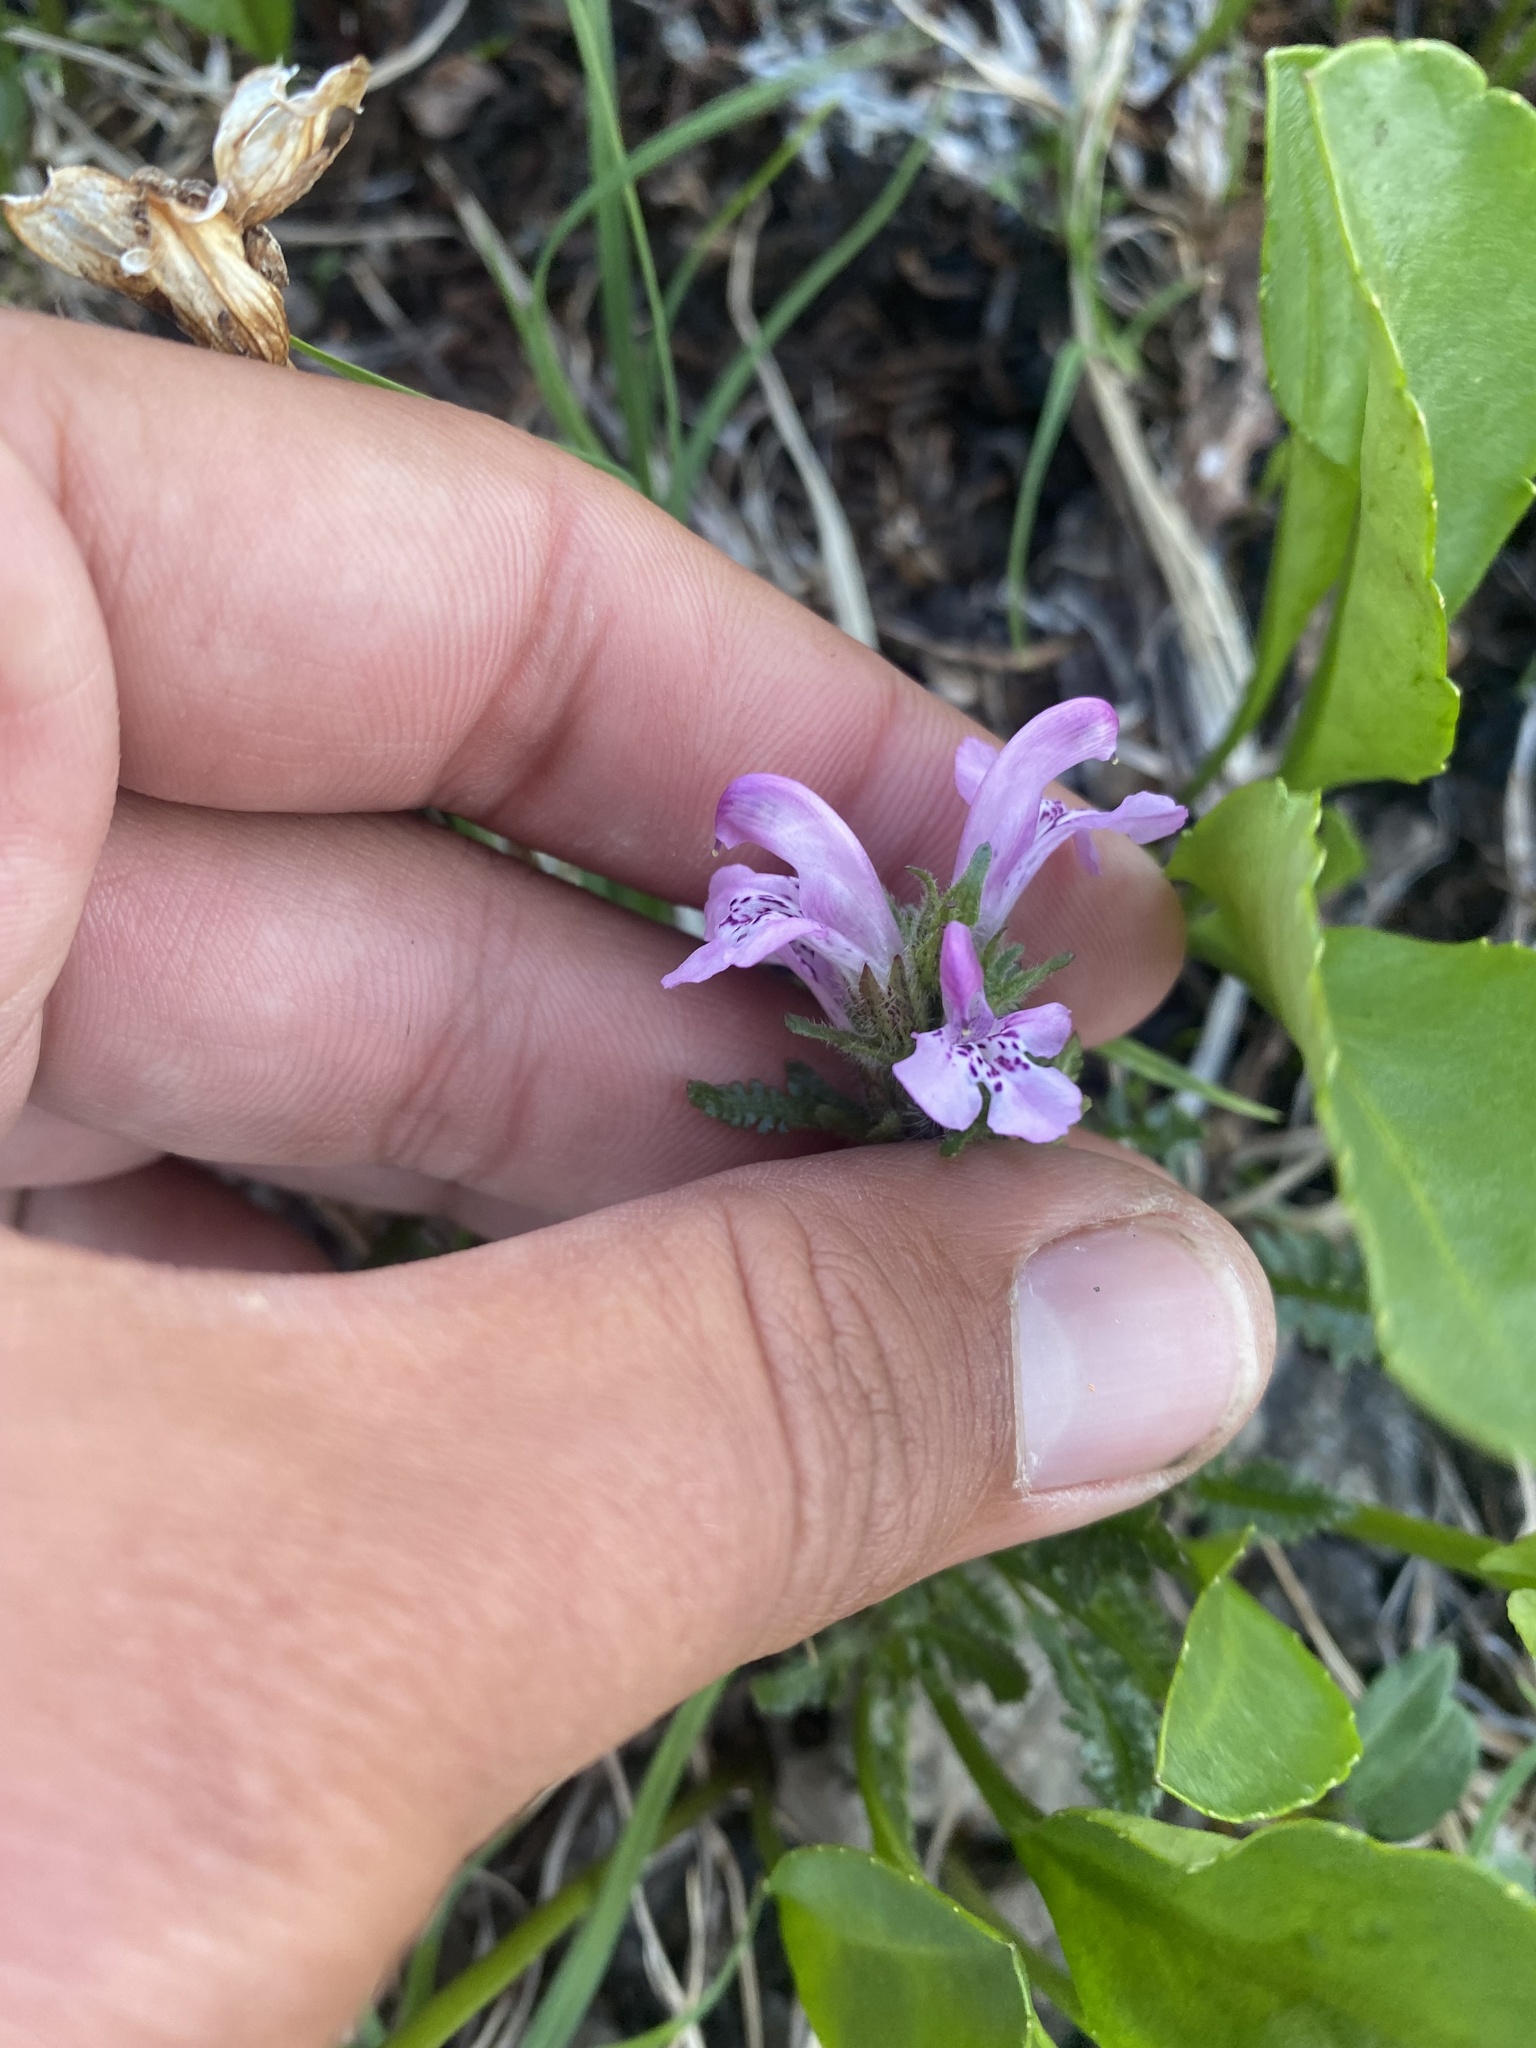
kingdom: Plantae
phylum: Tracheophyta
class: Magnoliopsida
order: Lamiales
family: Orobanchaceae
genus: Pedicularis
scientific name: Pedicularis amoena
